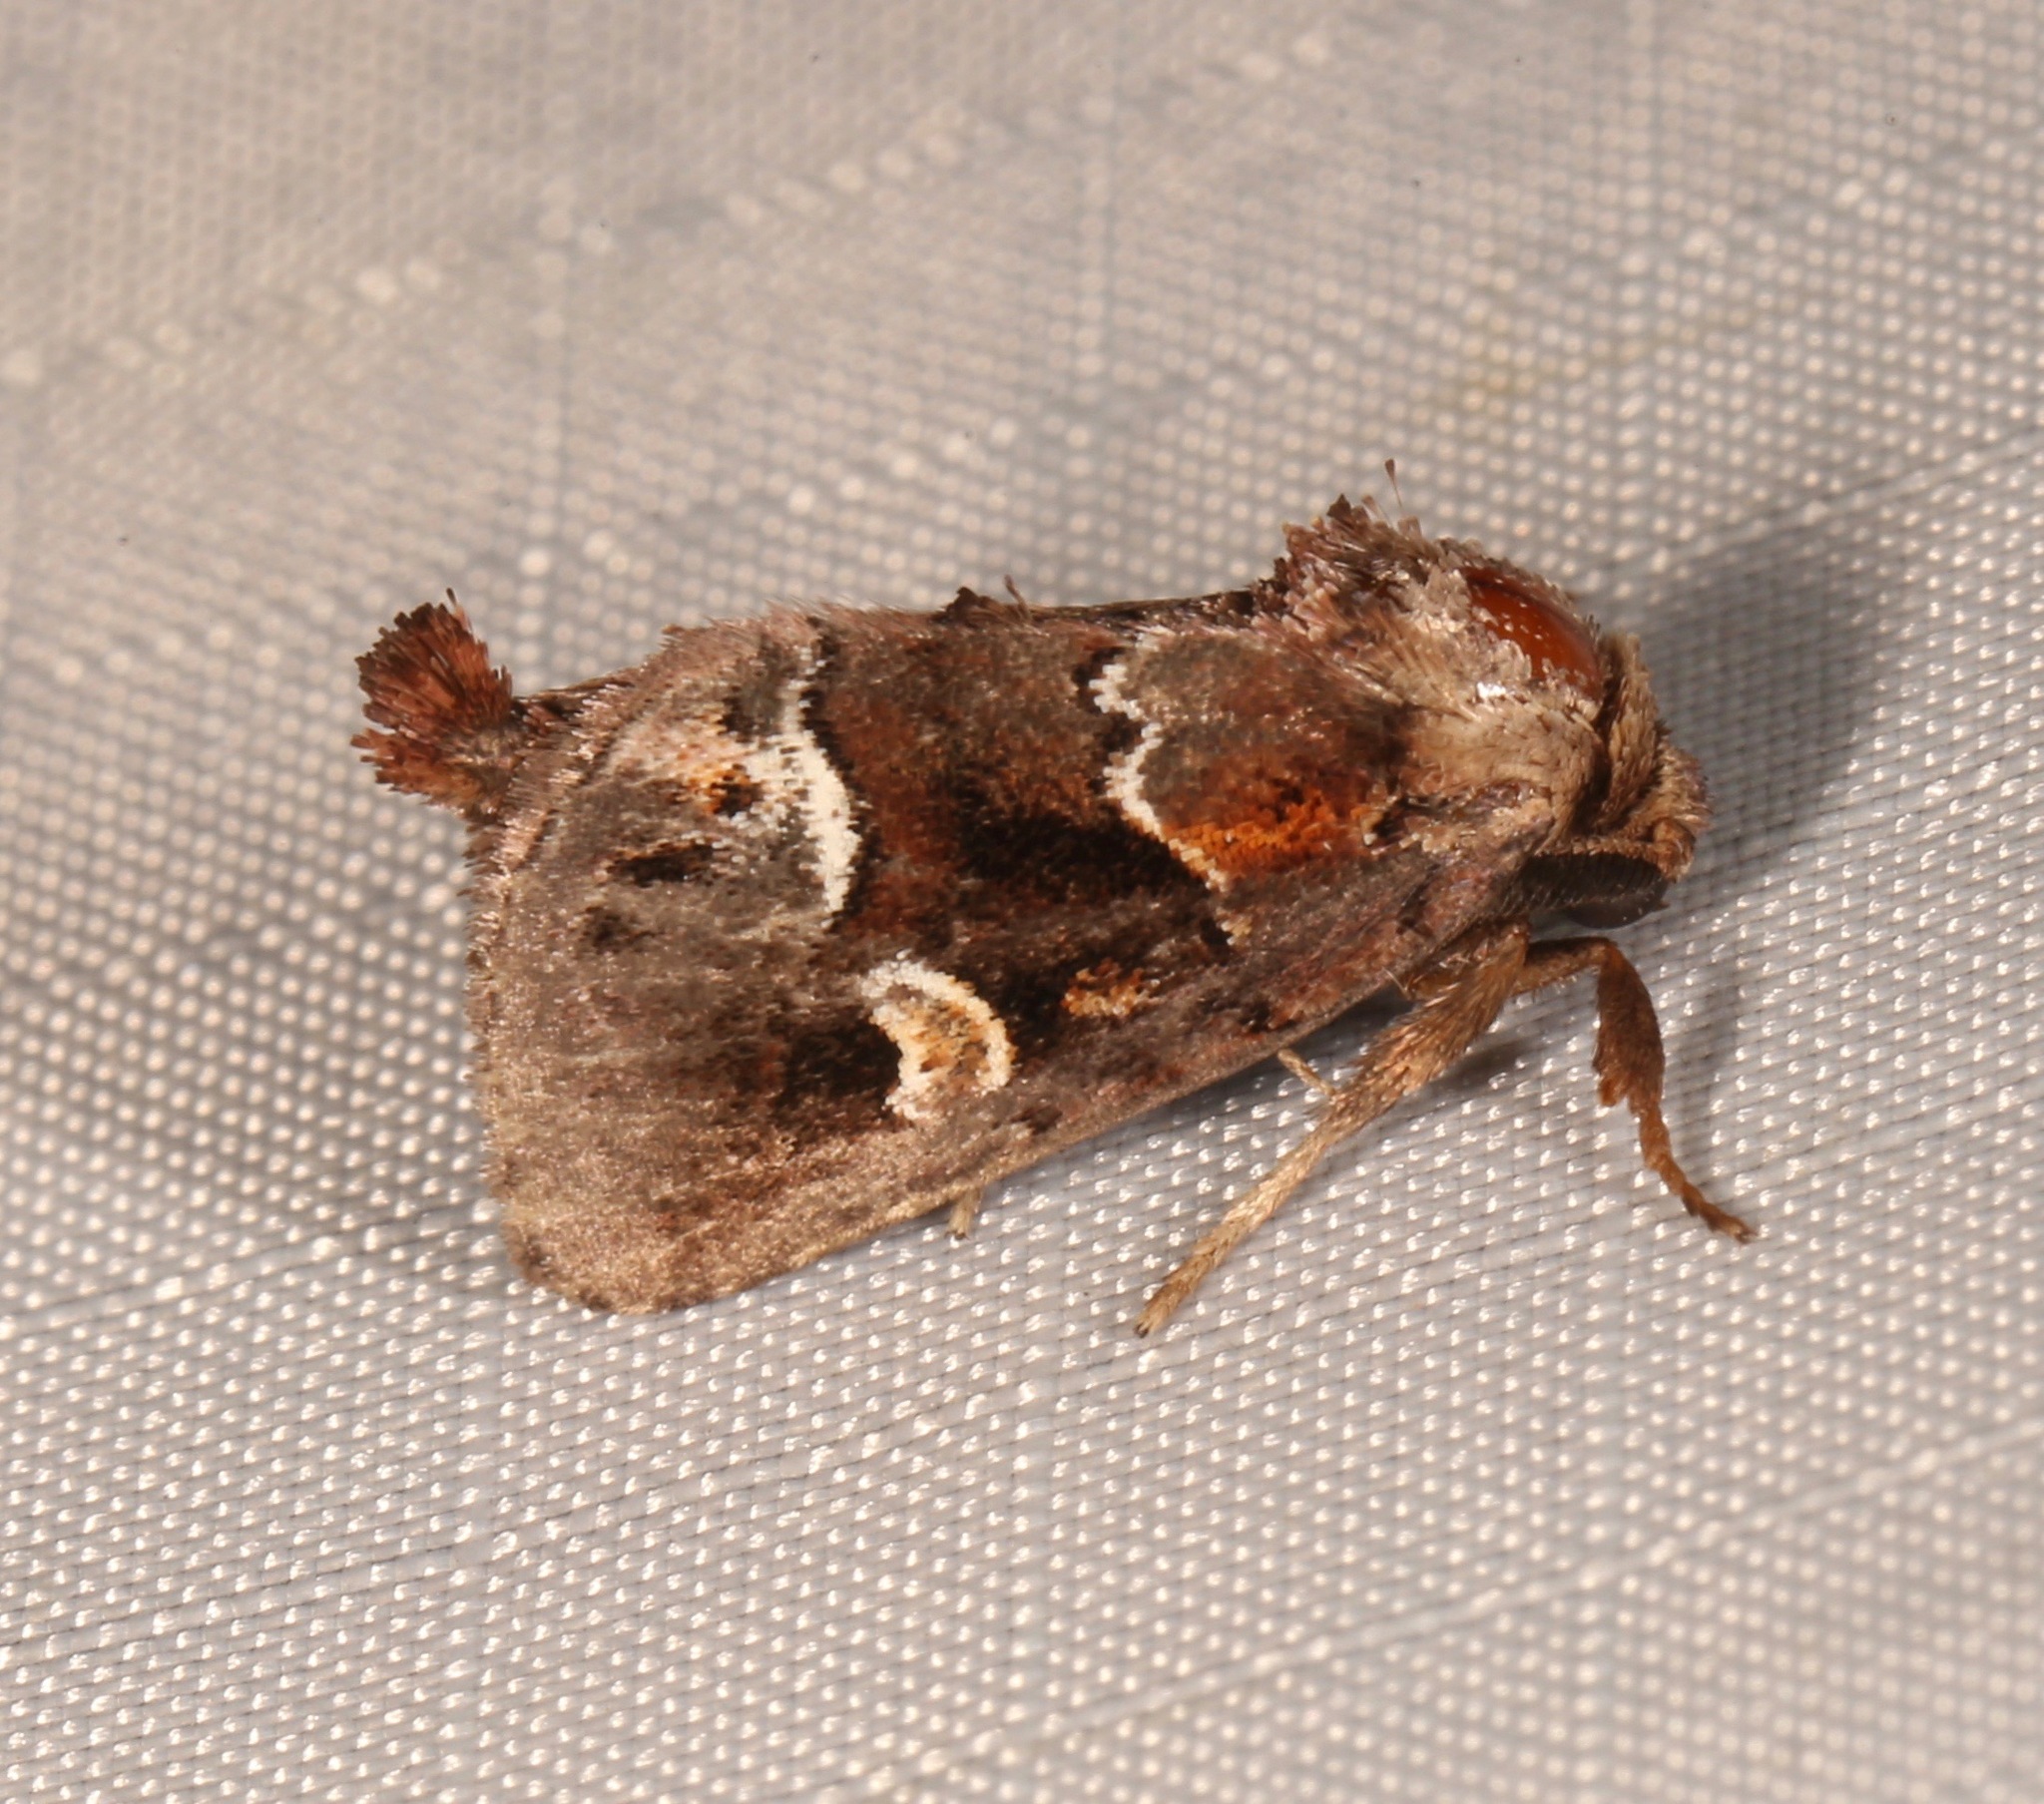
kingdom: Animalia
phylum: Arthropoda
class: Insecta
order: Lepidoptera
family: Noctuidae
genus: Acherdoa
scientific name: Acherdoa ferraria
